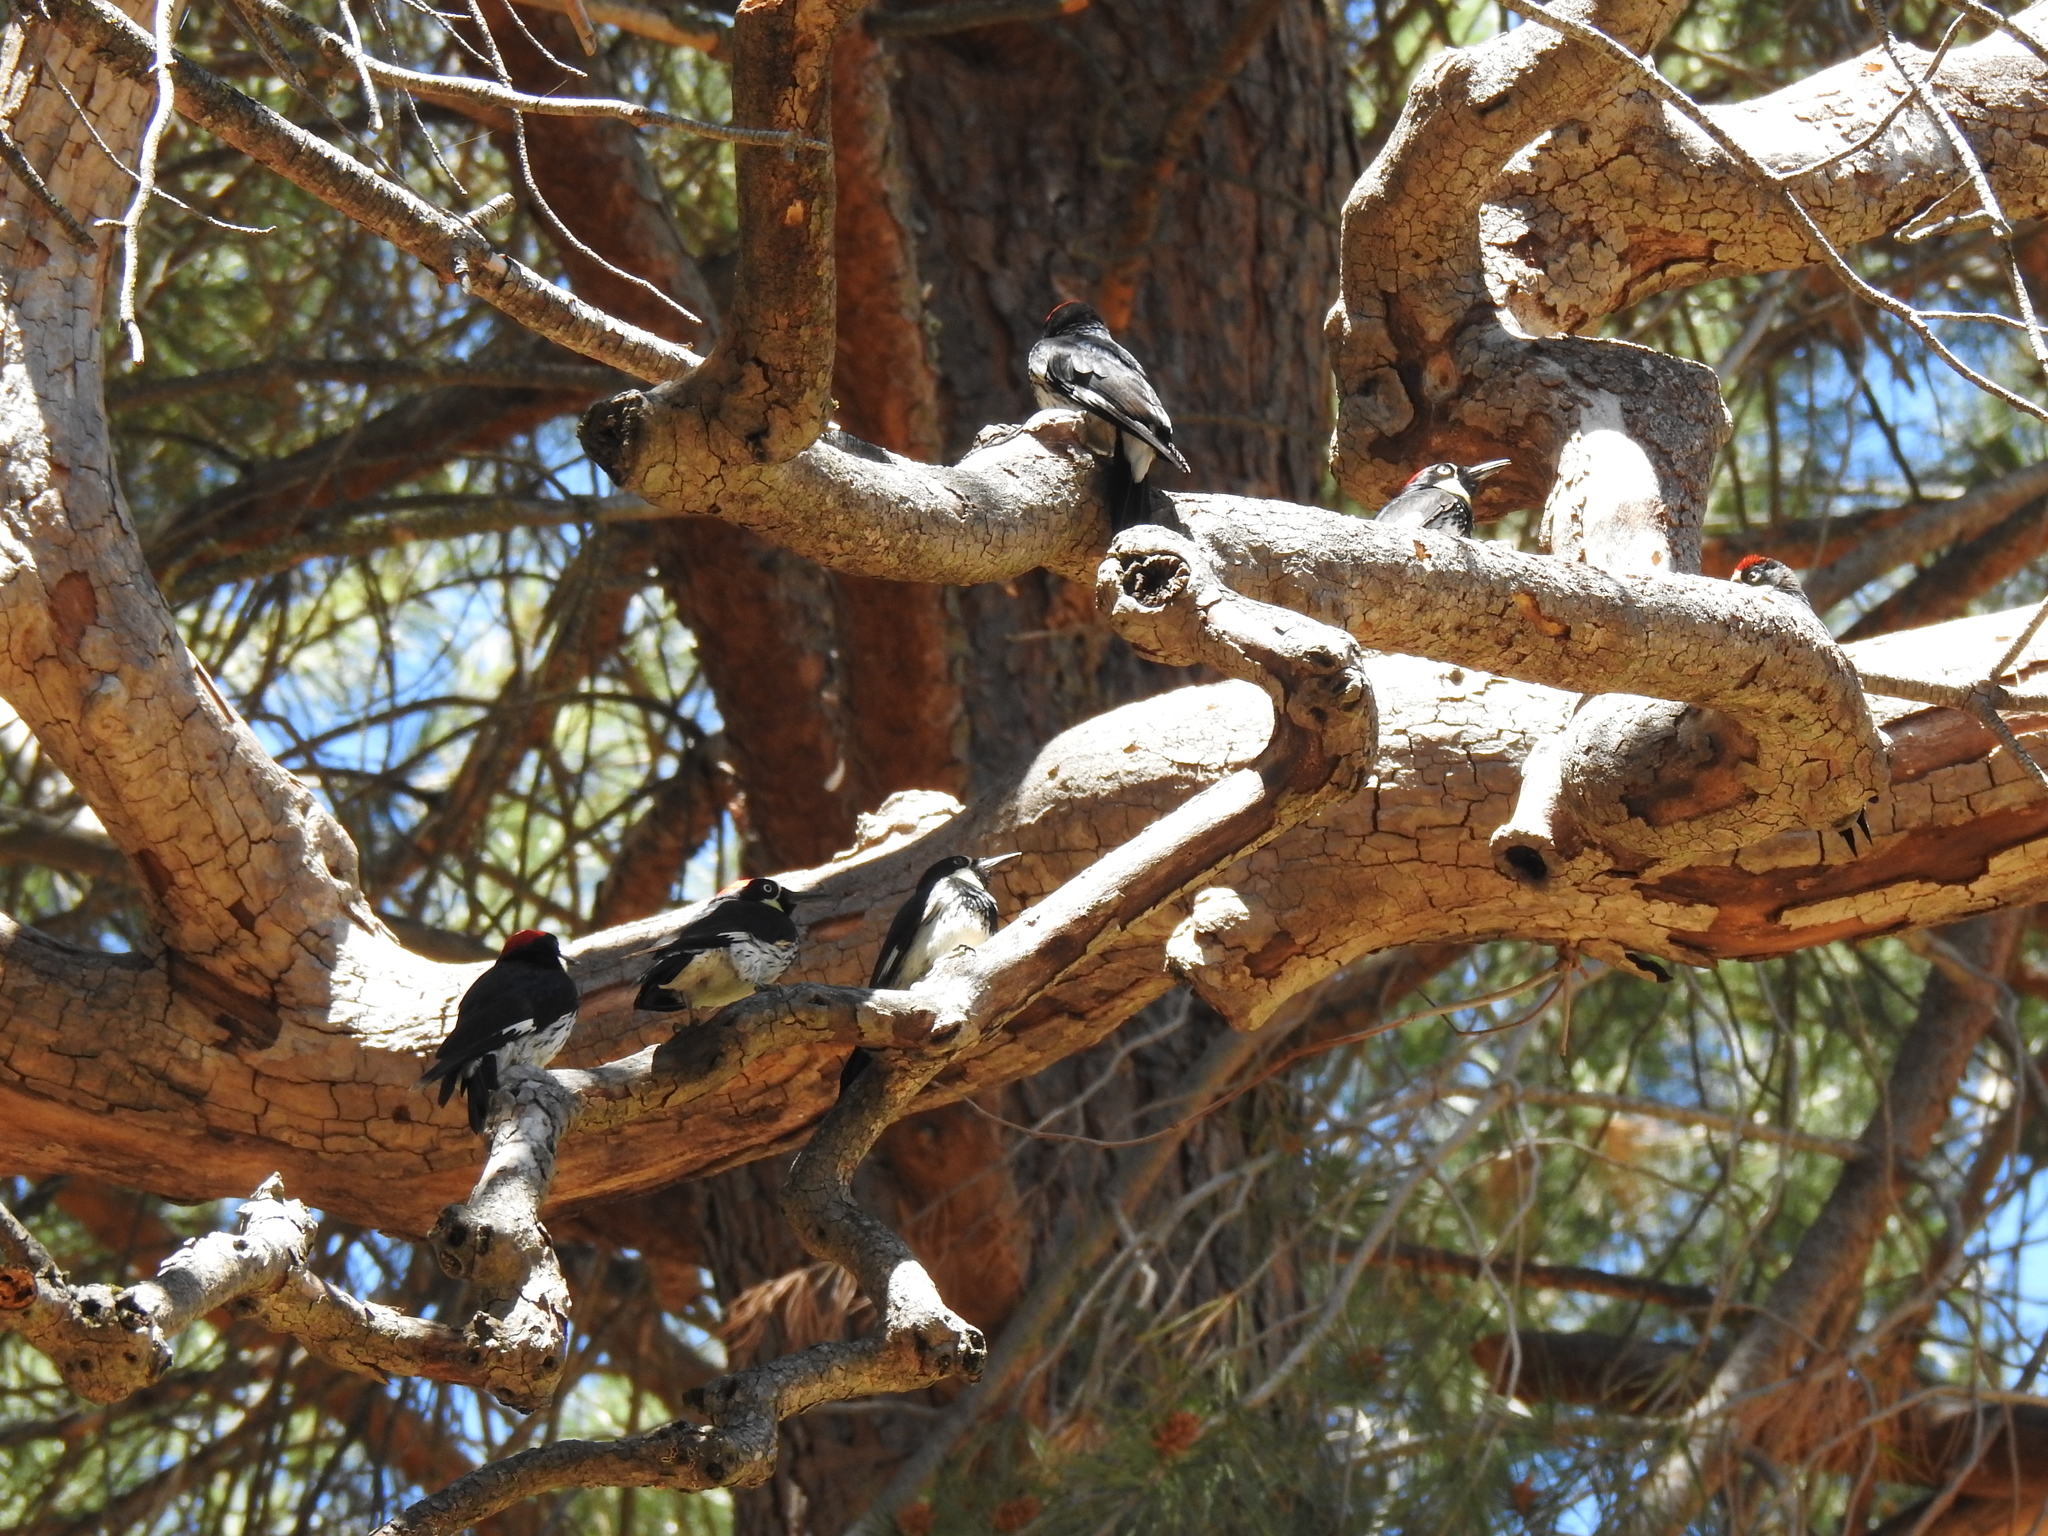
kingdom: Animalia
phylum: Chordata
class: Aves
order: Piciformes
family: Picidae
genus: Melanerpes
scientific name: Melanerpes formicivorus
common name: Acorn woodpecker
